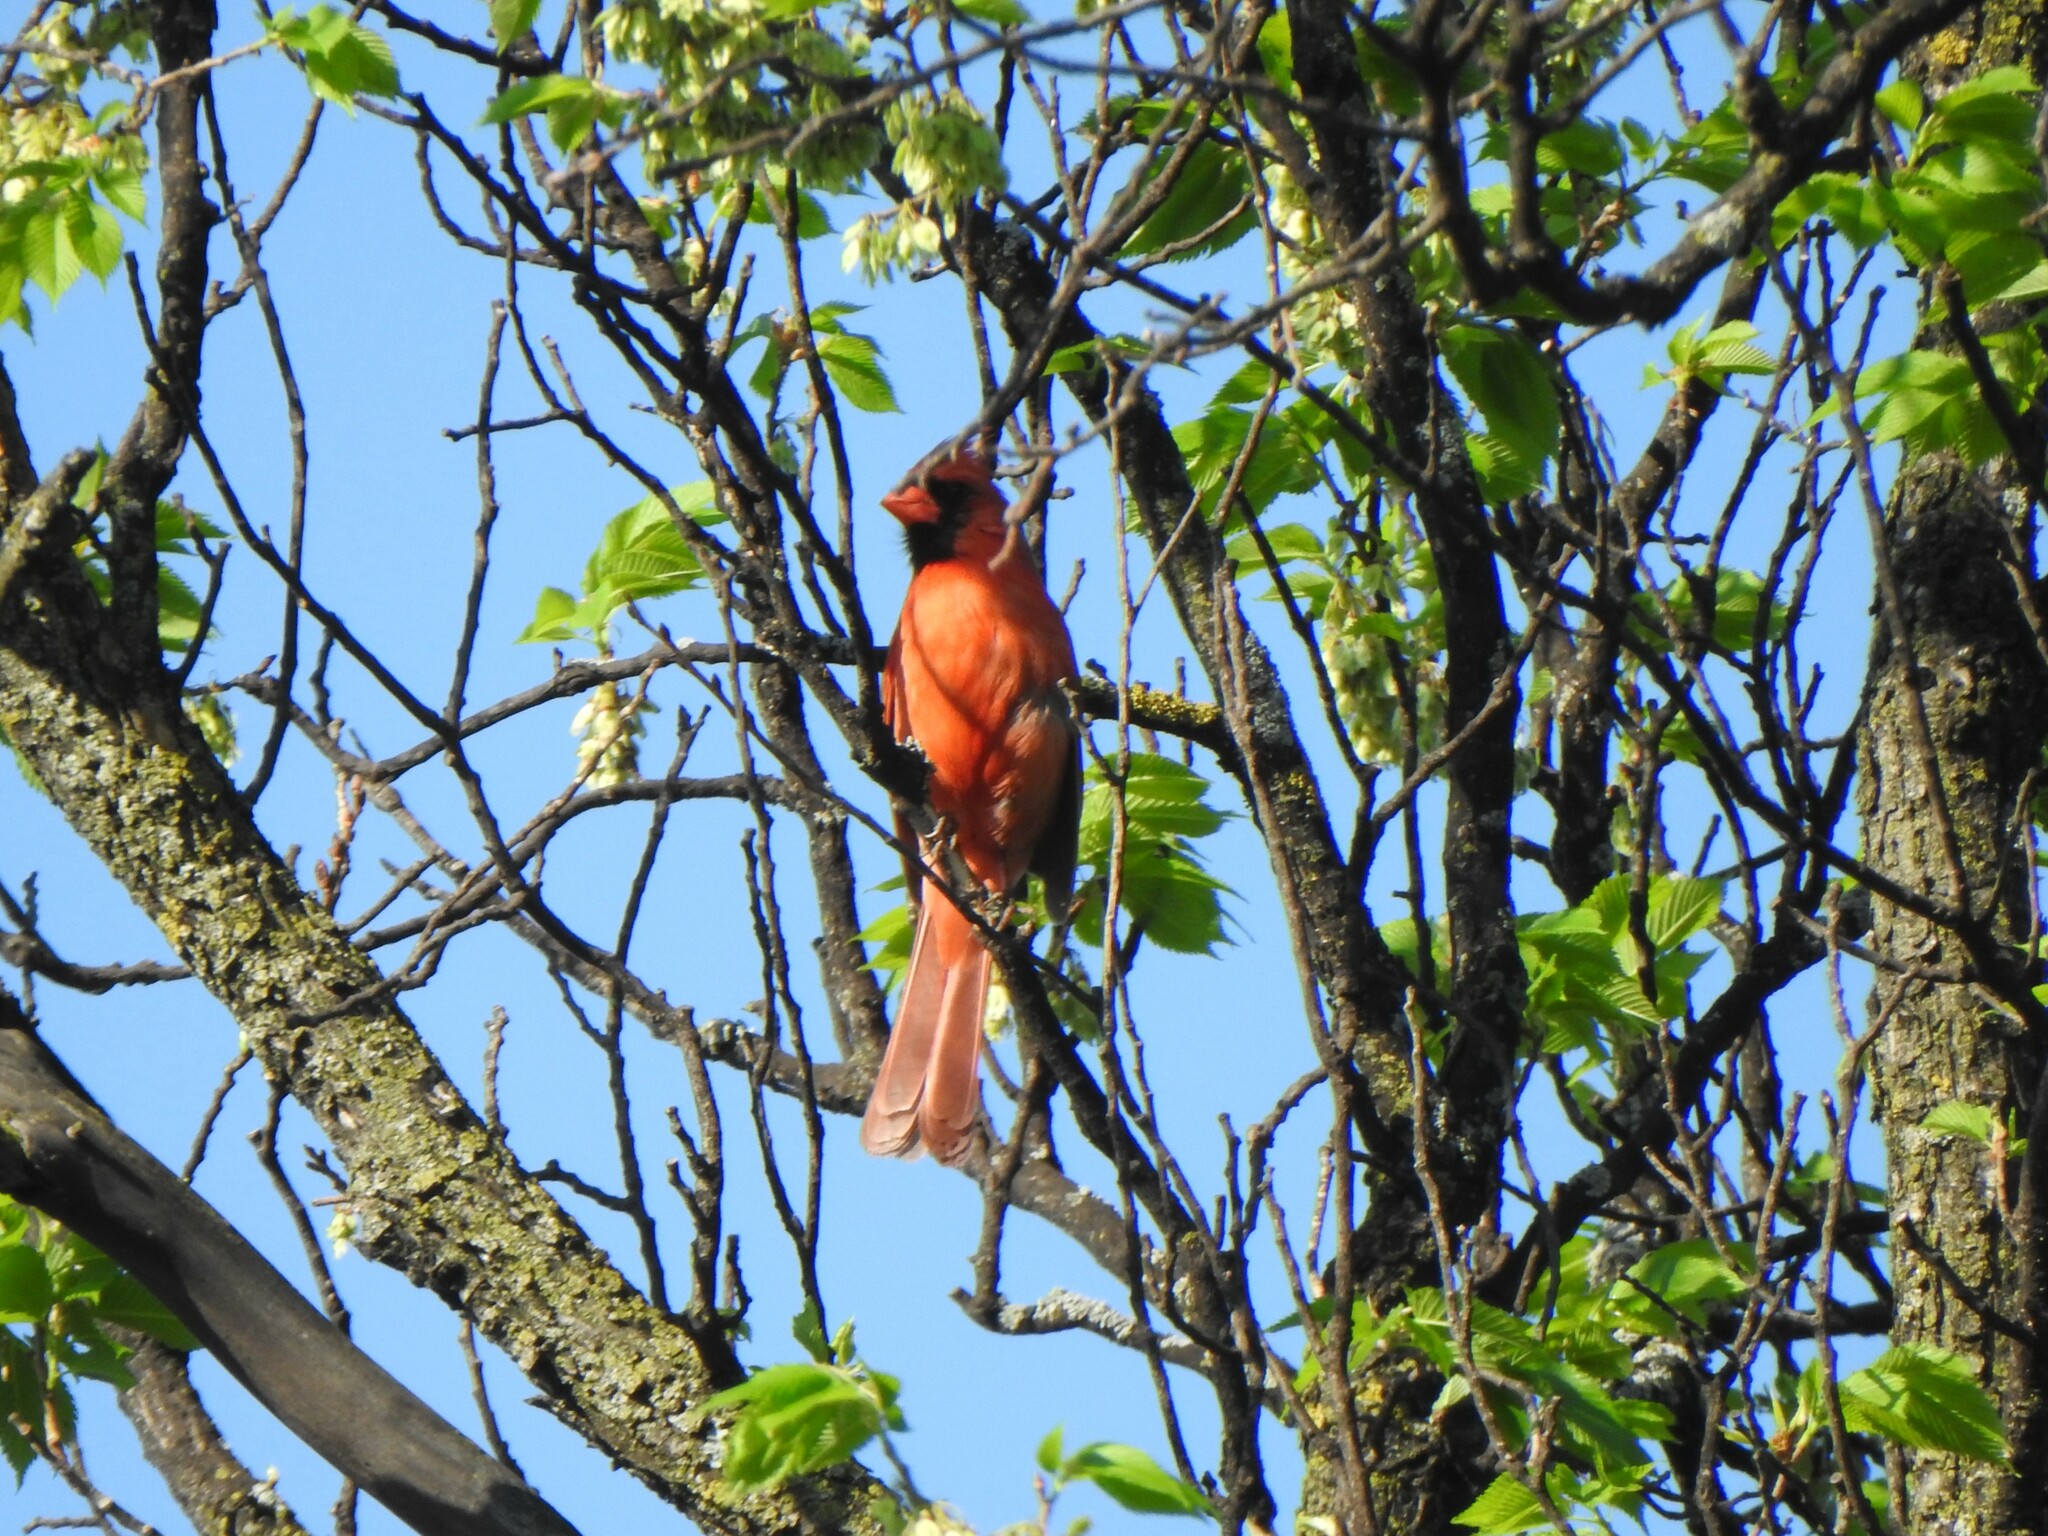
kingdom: Animalia
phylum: Chordata
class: Aves
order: Passeriformes
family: Cardinalidae
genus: Cardinalis
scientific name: Cardinalis cardinalis
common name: Northern cardinal
